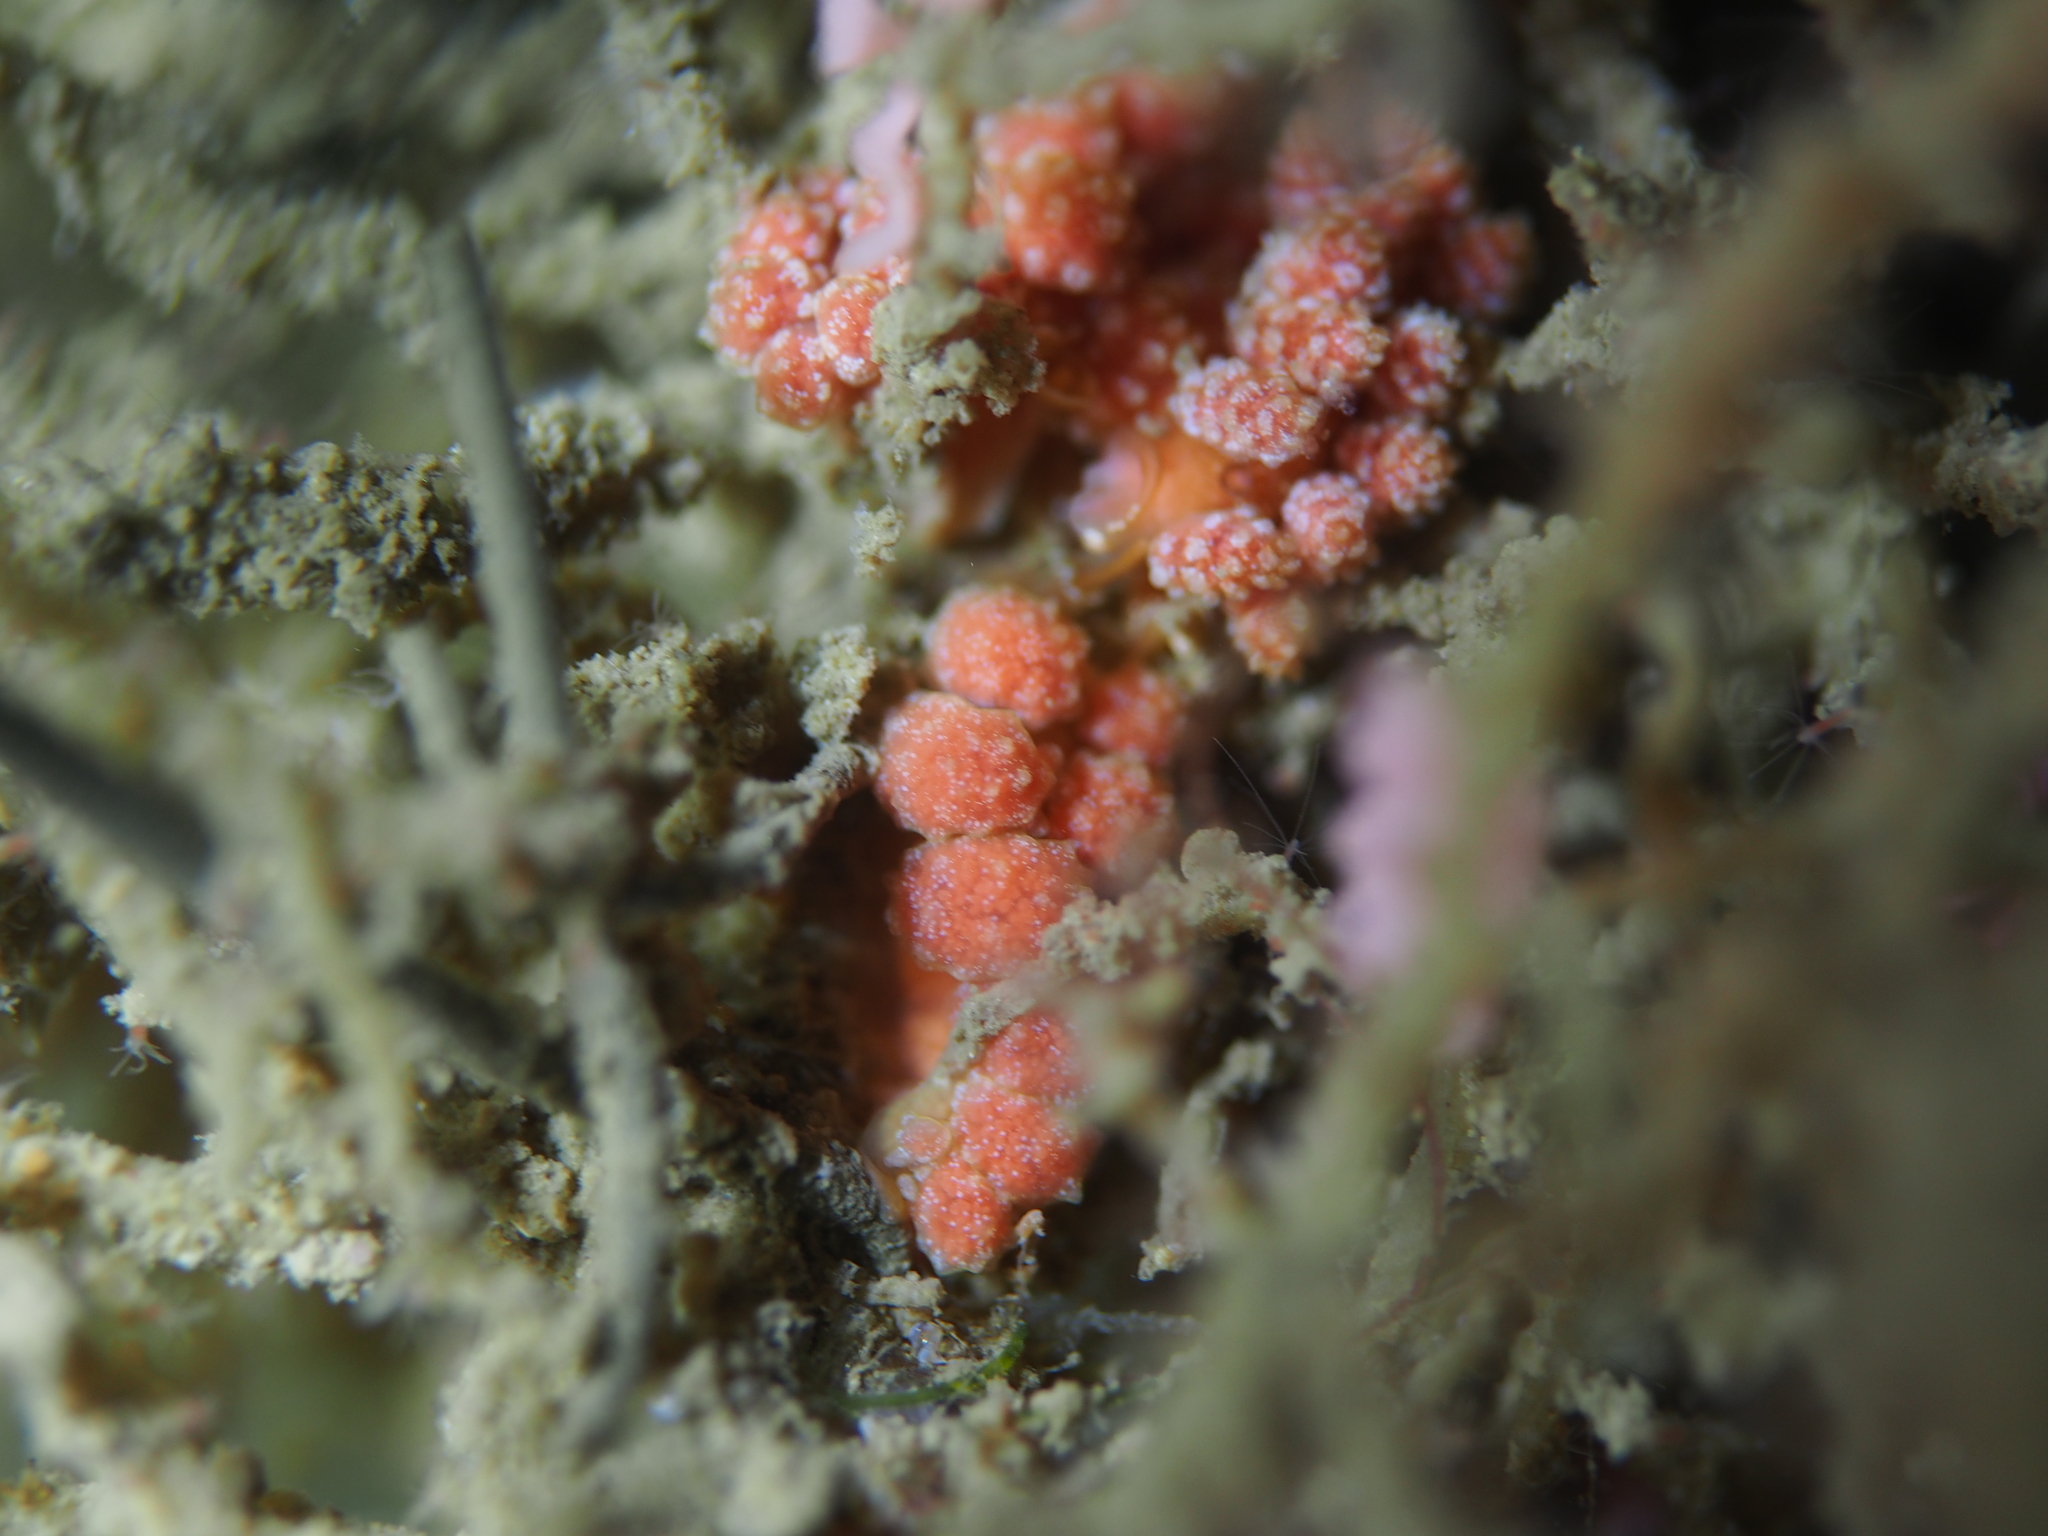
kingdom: Animalia
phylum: Mollusca
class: Gastropoda
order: Nudibranchia
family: Dotidae
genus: Doto
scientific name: Doto fragilis
